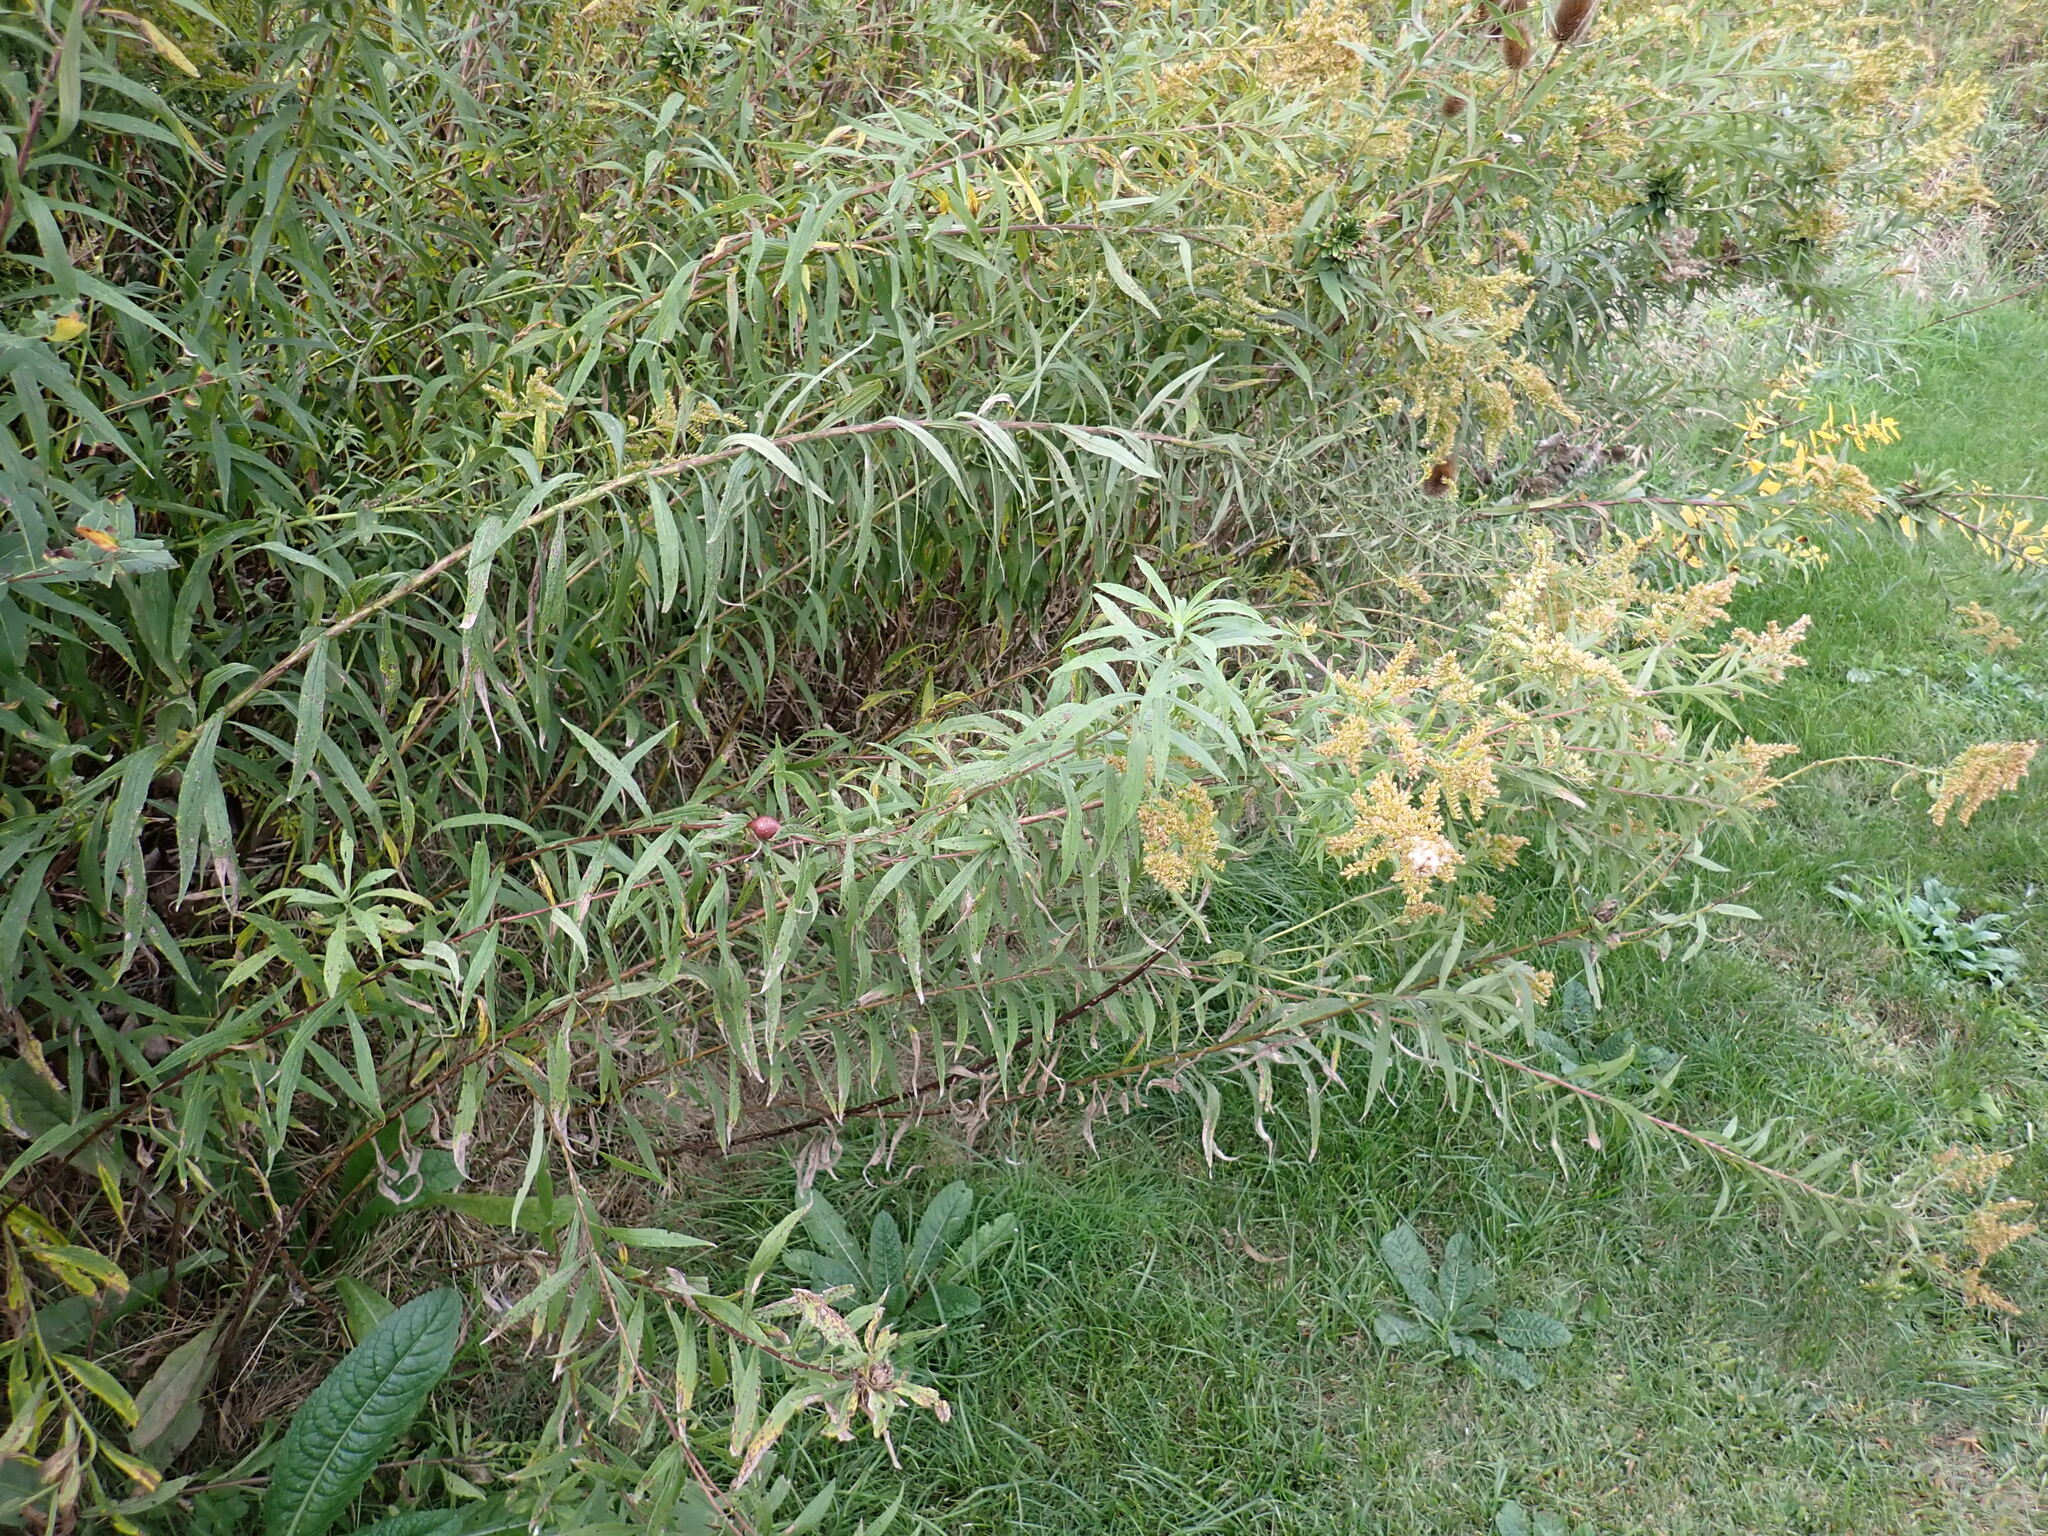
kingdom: Animalia
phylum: Arthropoda
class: Insecta
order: Diptera
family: Tephritidae
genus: Eurosta
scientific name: Eurosta solidaginis
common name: Goldenrod gall fly
